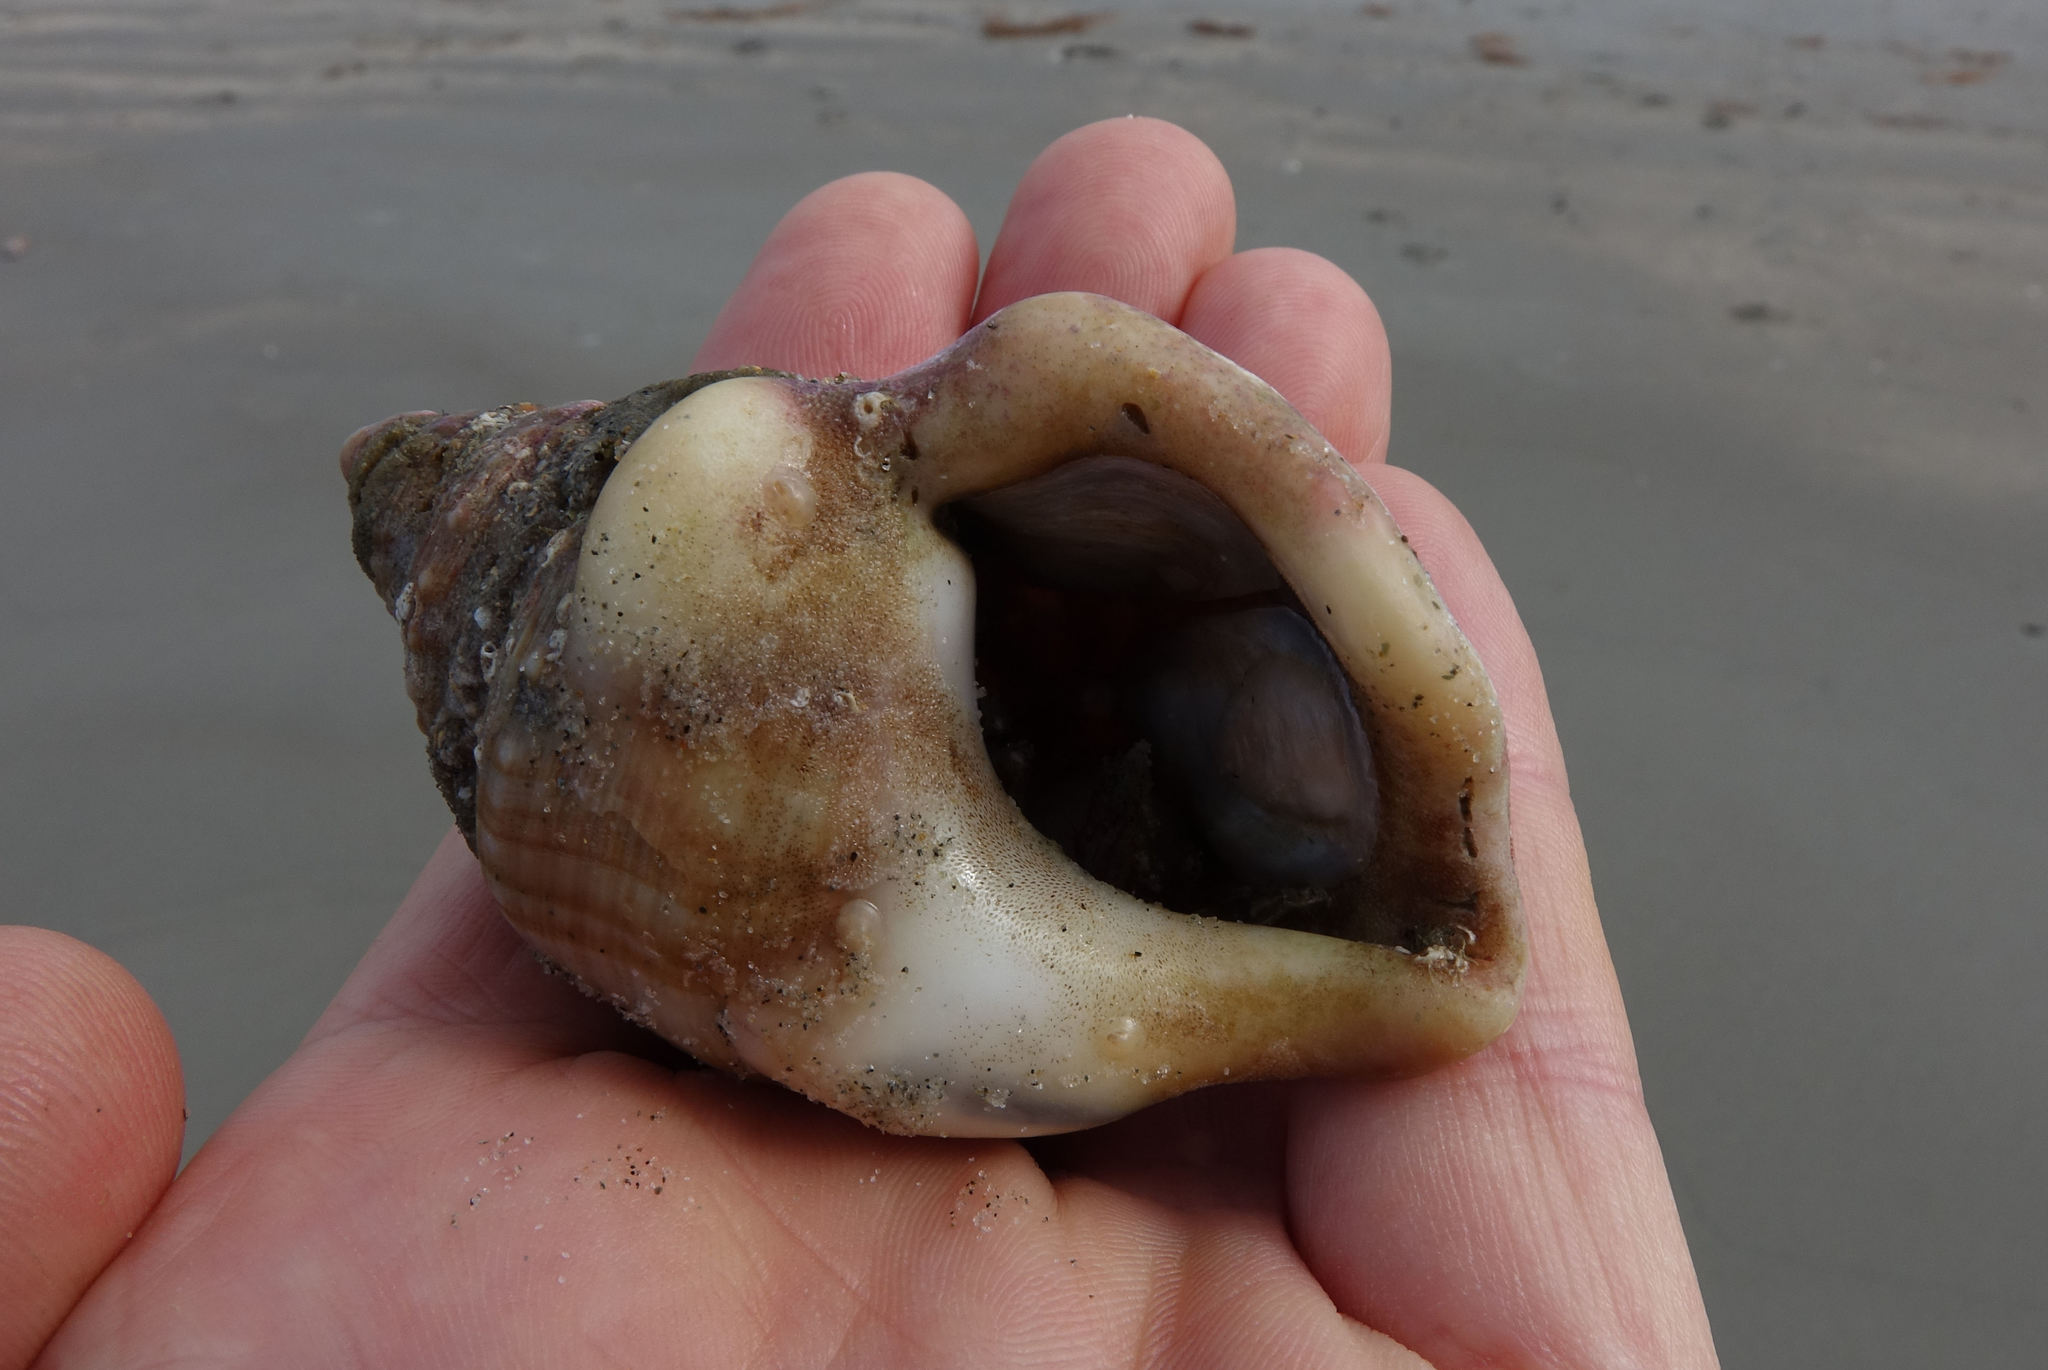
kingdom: Animalia
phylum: Mollusca
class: Gastropoda
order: Littorinimorpha
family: Struthiolariidae
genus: Struthiolaria
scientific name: Struthiolaria papulosa
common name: Large ostrich foot
